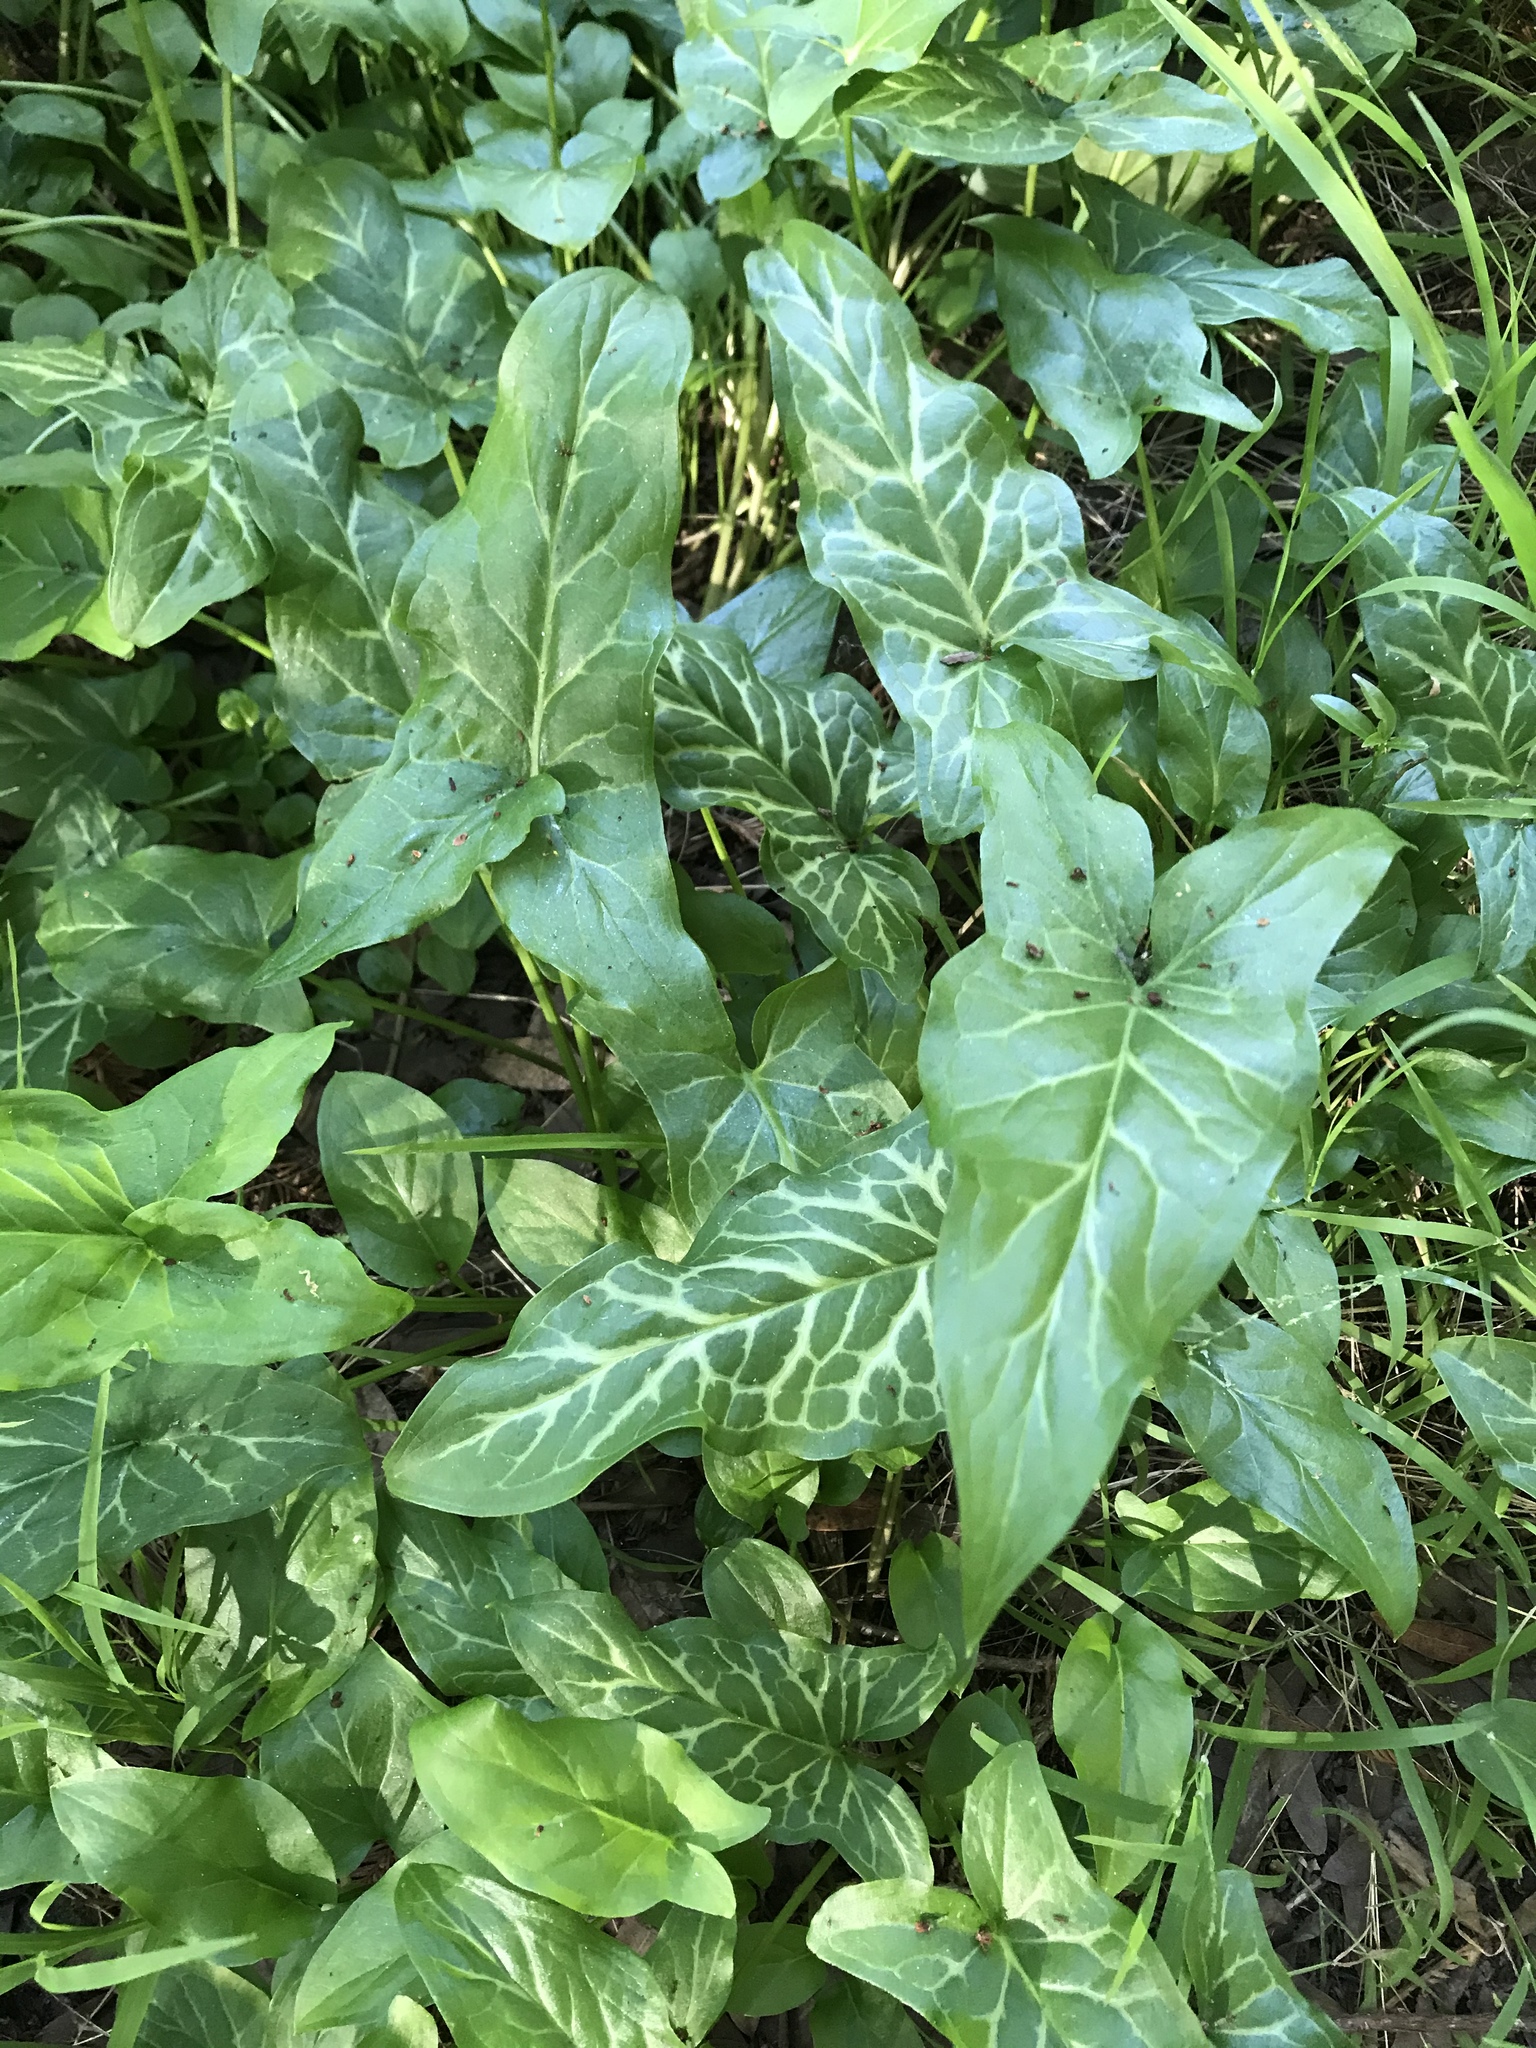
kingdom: Plantae
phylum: Tracheophyta
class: Liliopsida
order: Alismatales
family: Araceae
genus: Arum
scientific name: Arum italicum
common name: Italian lords-and-ladies
